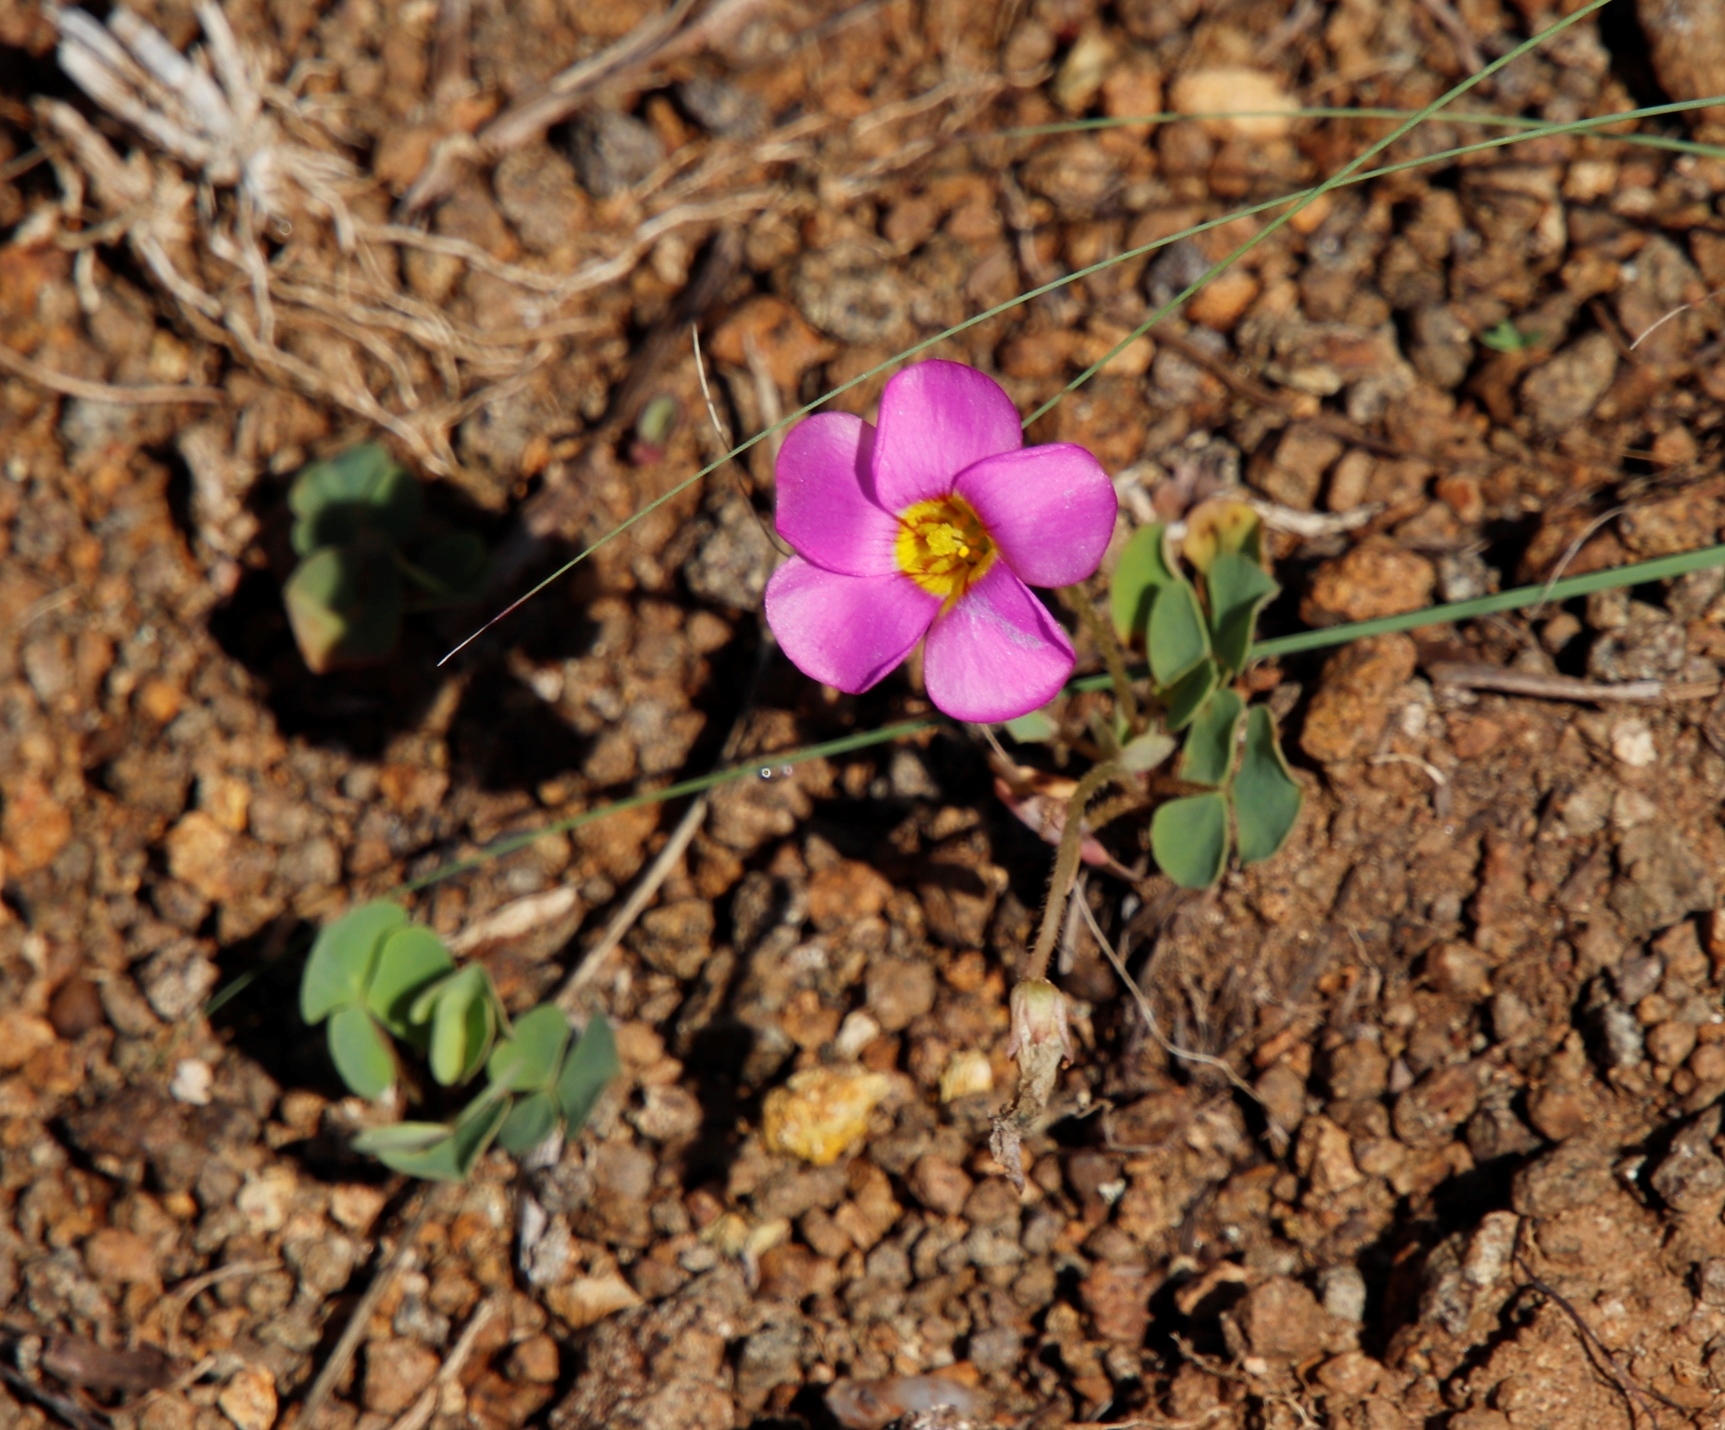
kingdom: Plantae
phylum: Tracheophyta
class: Magnoliopsida
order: Oxalidales
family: Oxalidaceae
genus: Oxalis
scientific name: Oxalis obliquifolia
